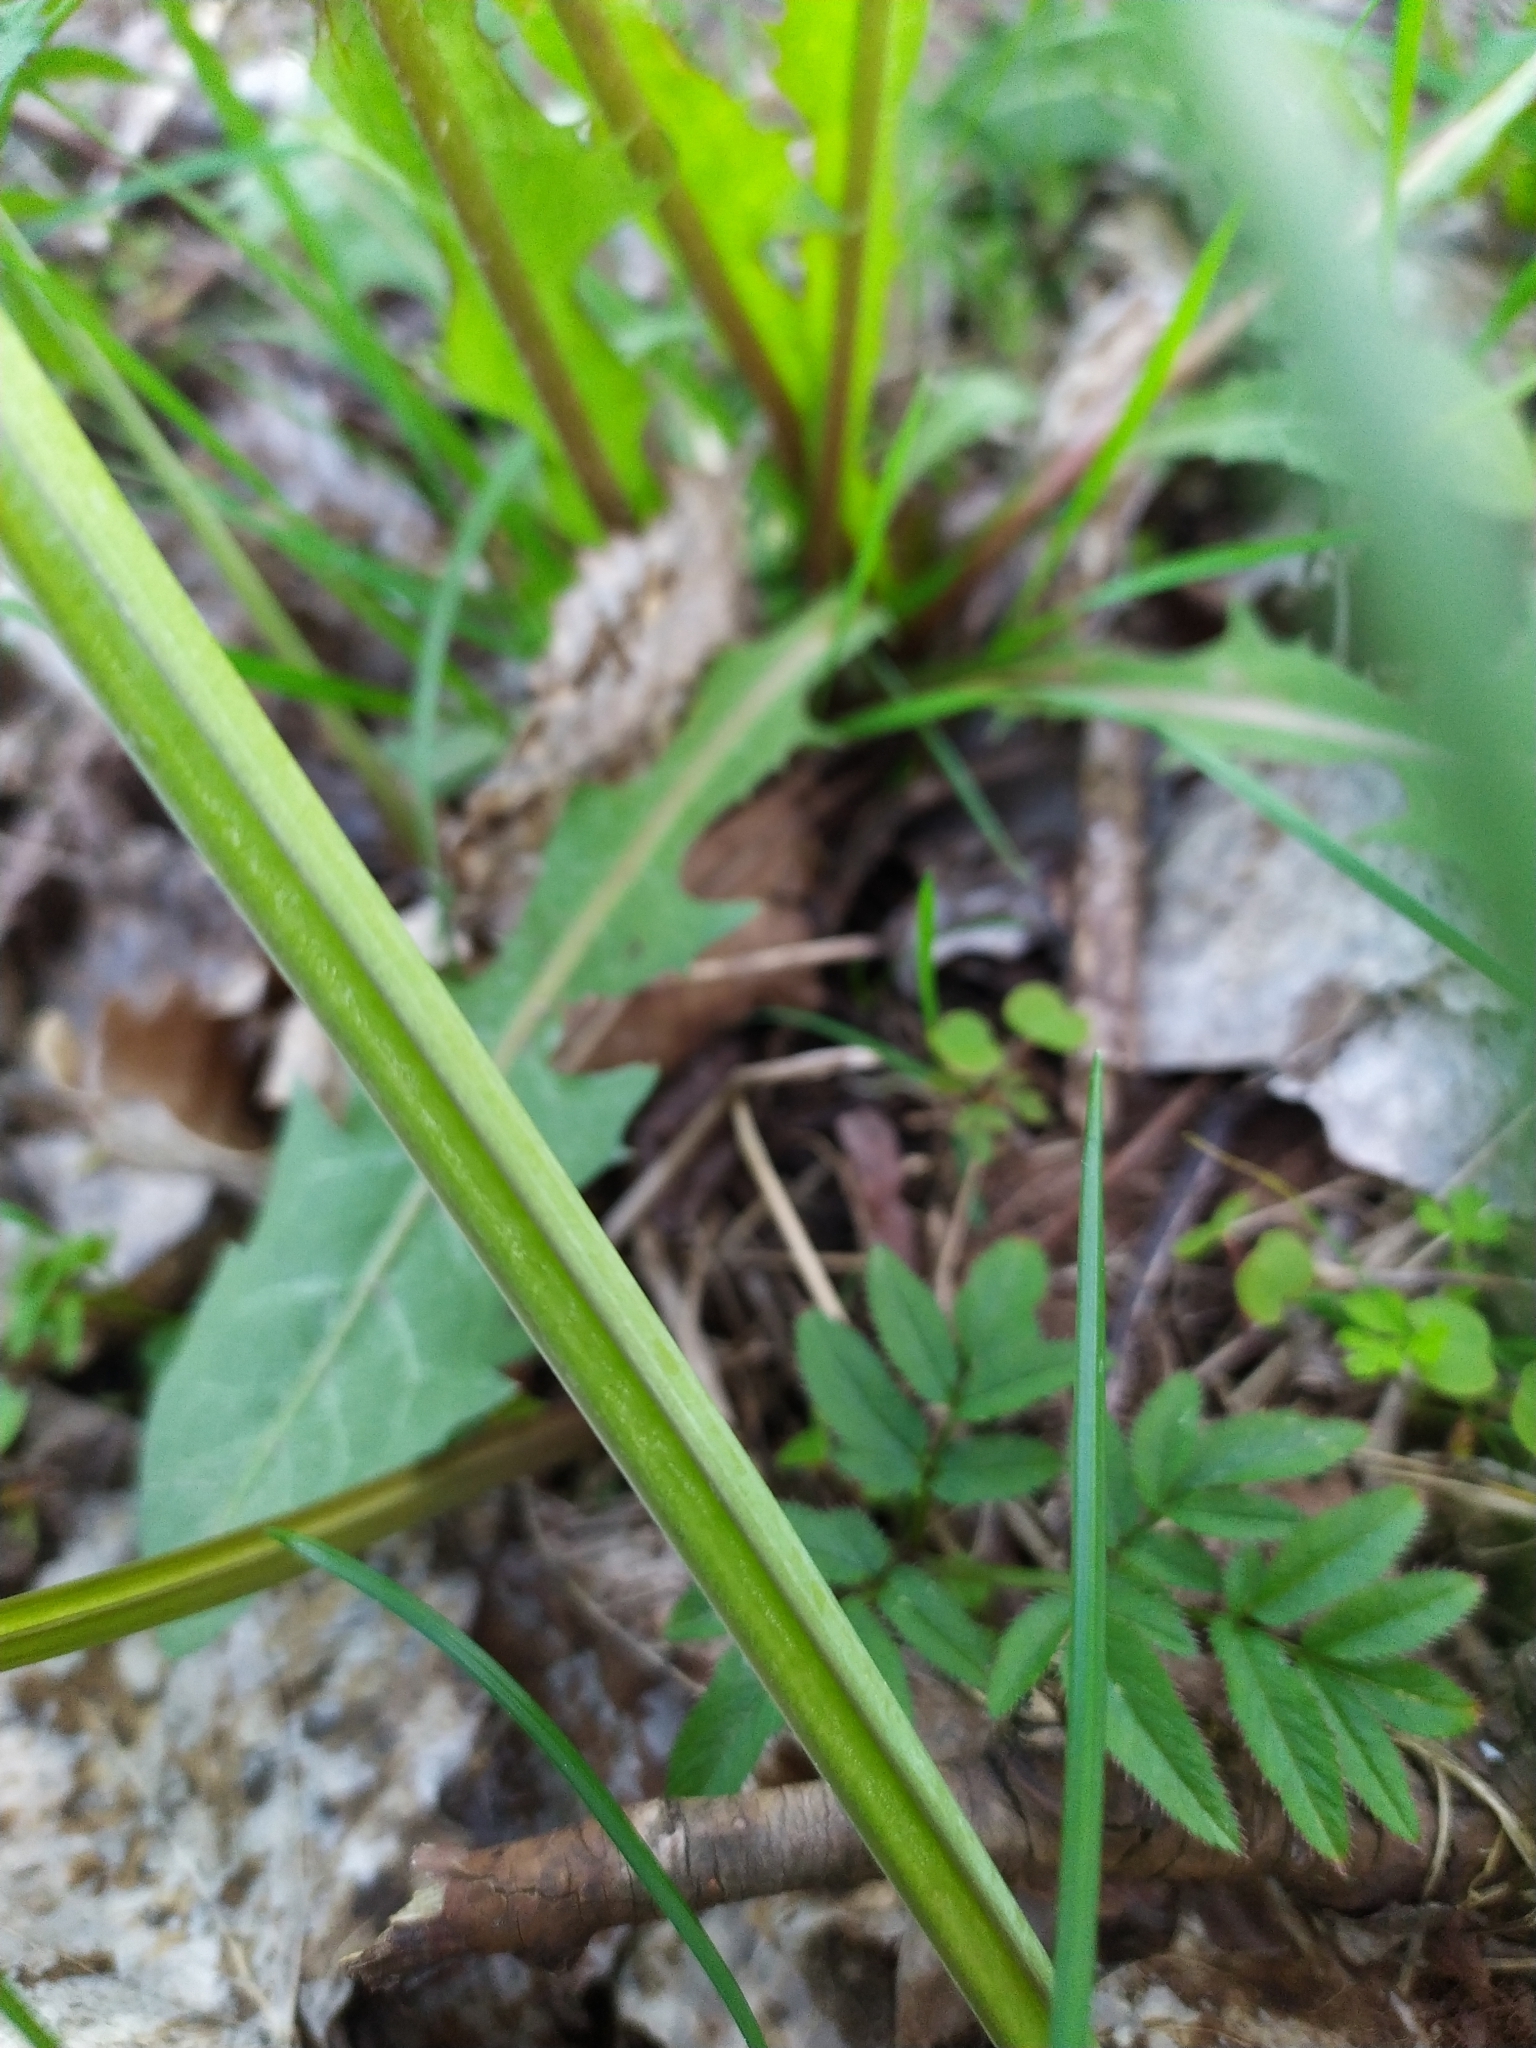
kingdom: Plantae
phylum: Tracheophyta
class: Magnoliopsida
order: Apiales
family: Apiaceae
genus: Angelica
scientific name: Angelica sylvestris
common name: Wild angelica
